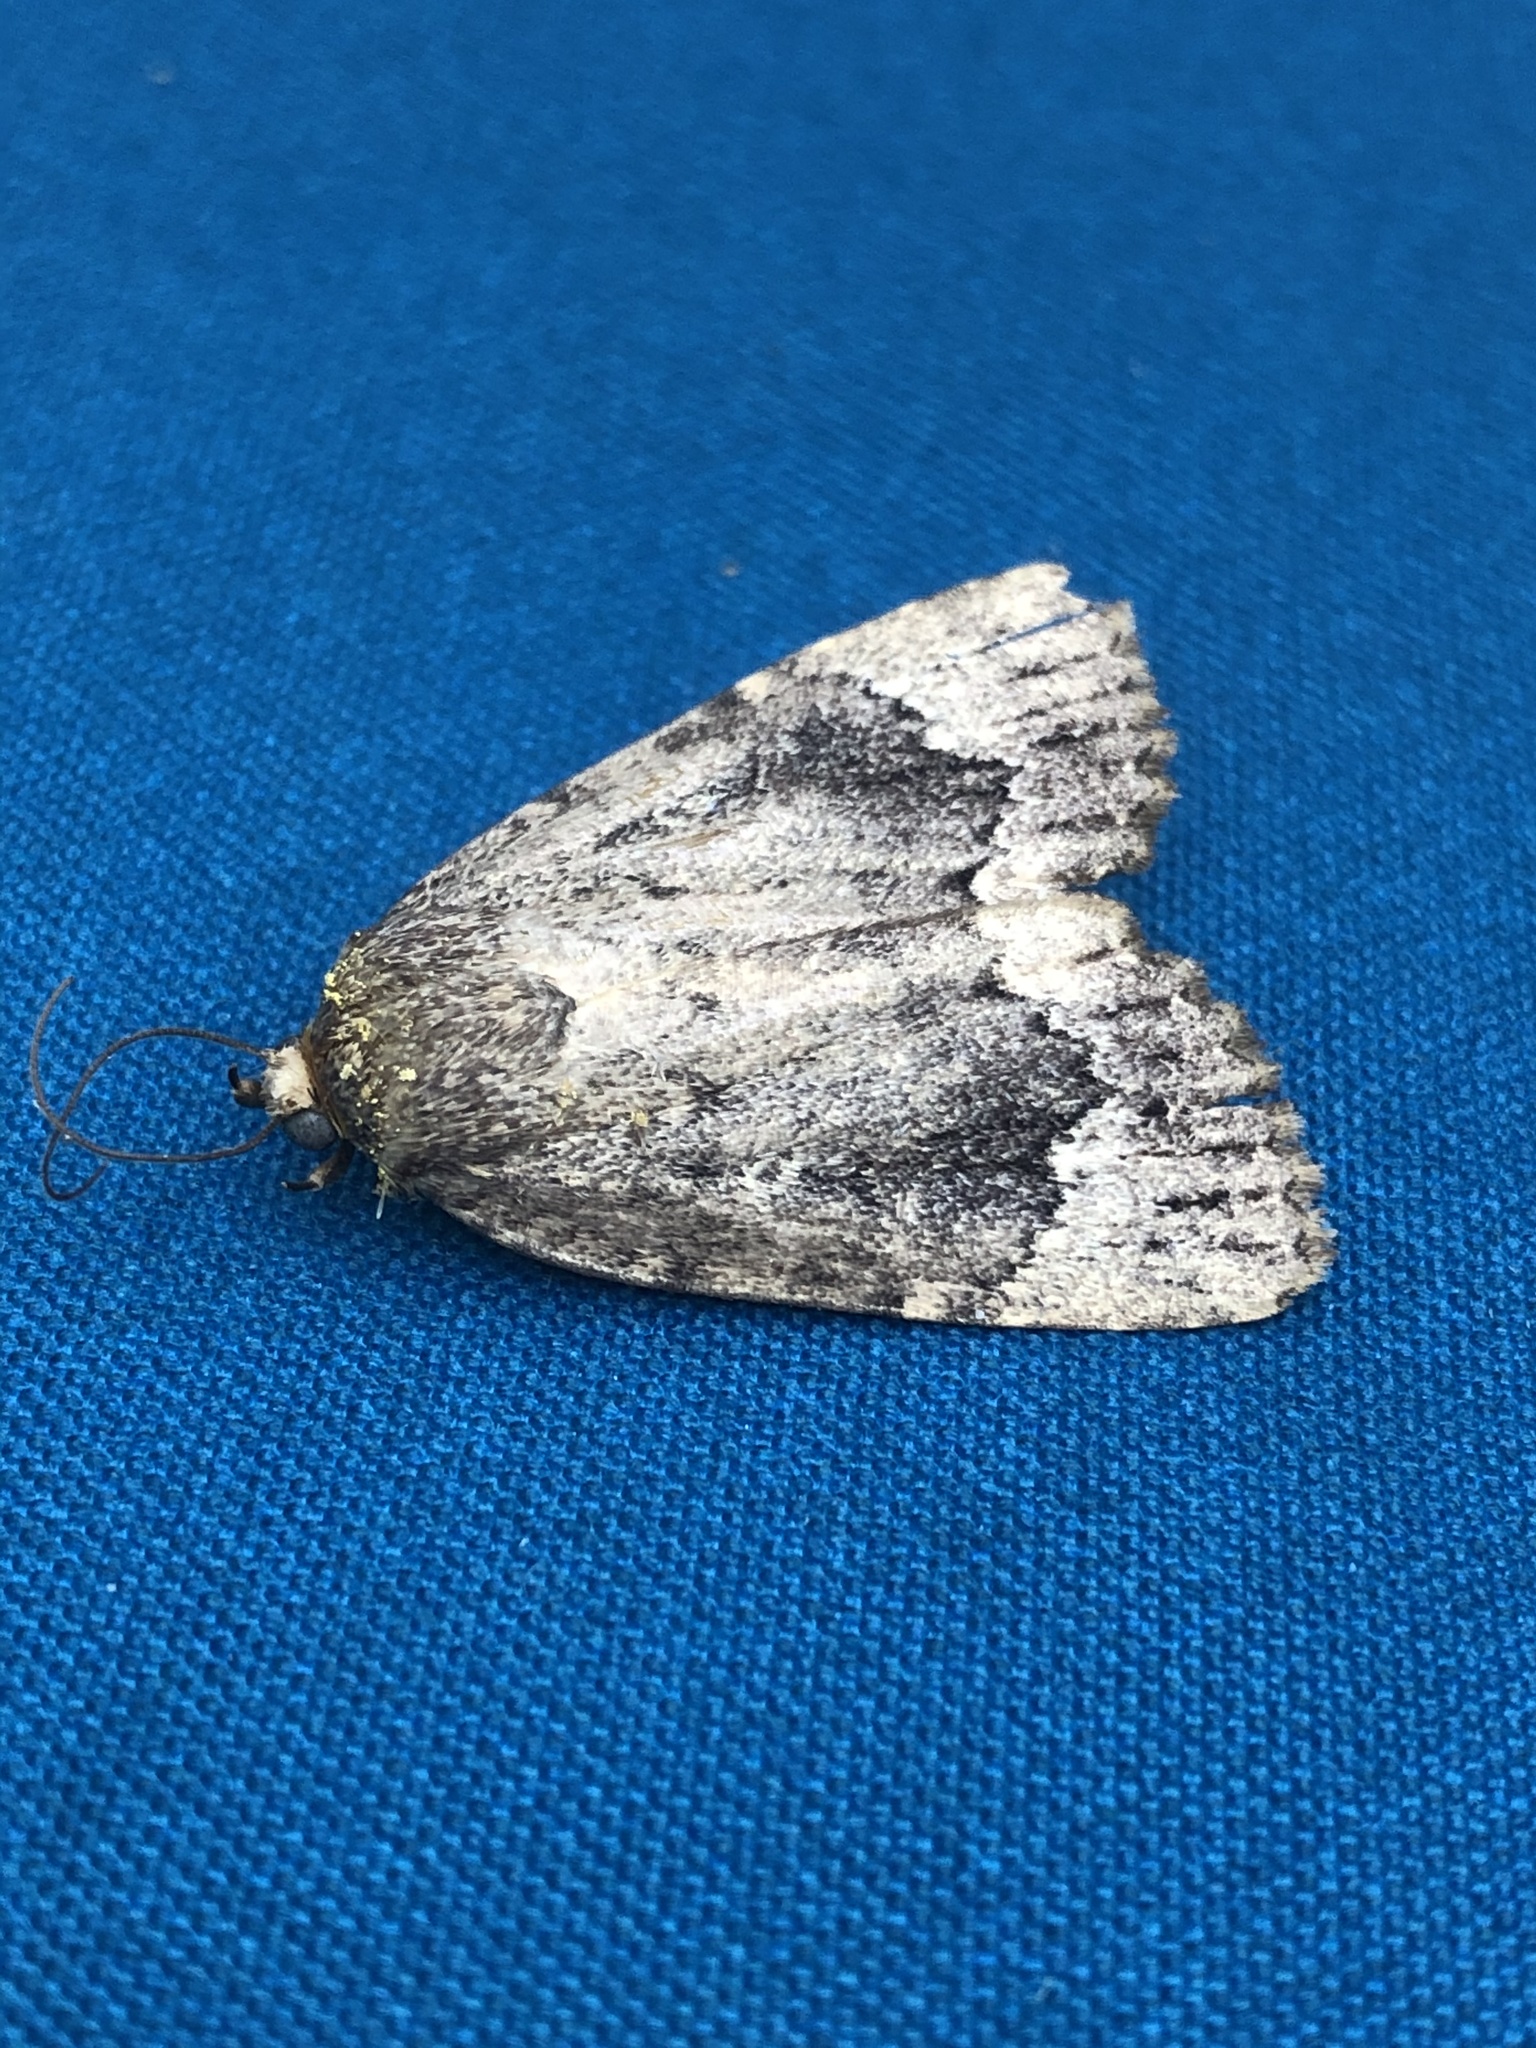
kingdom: Animalia
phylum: Arthropoda
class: Insecta
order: Lepidoptera
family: Noctuidae
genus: Amphipyra
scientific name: Amphipyra pyramidoides
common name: American copper underwing
